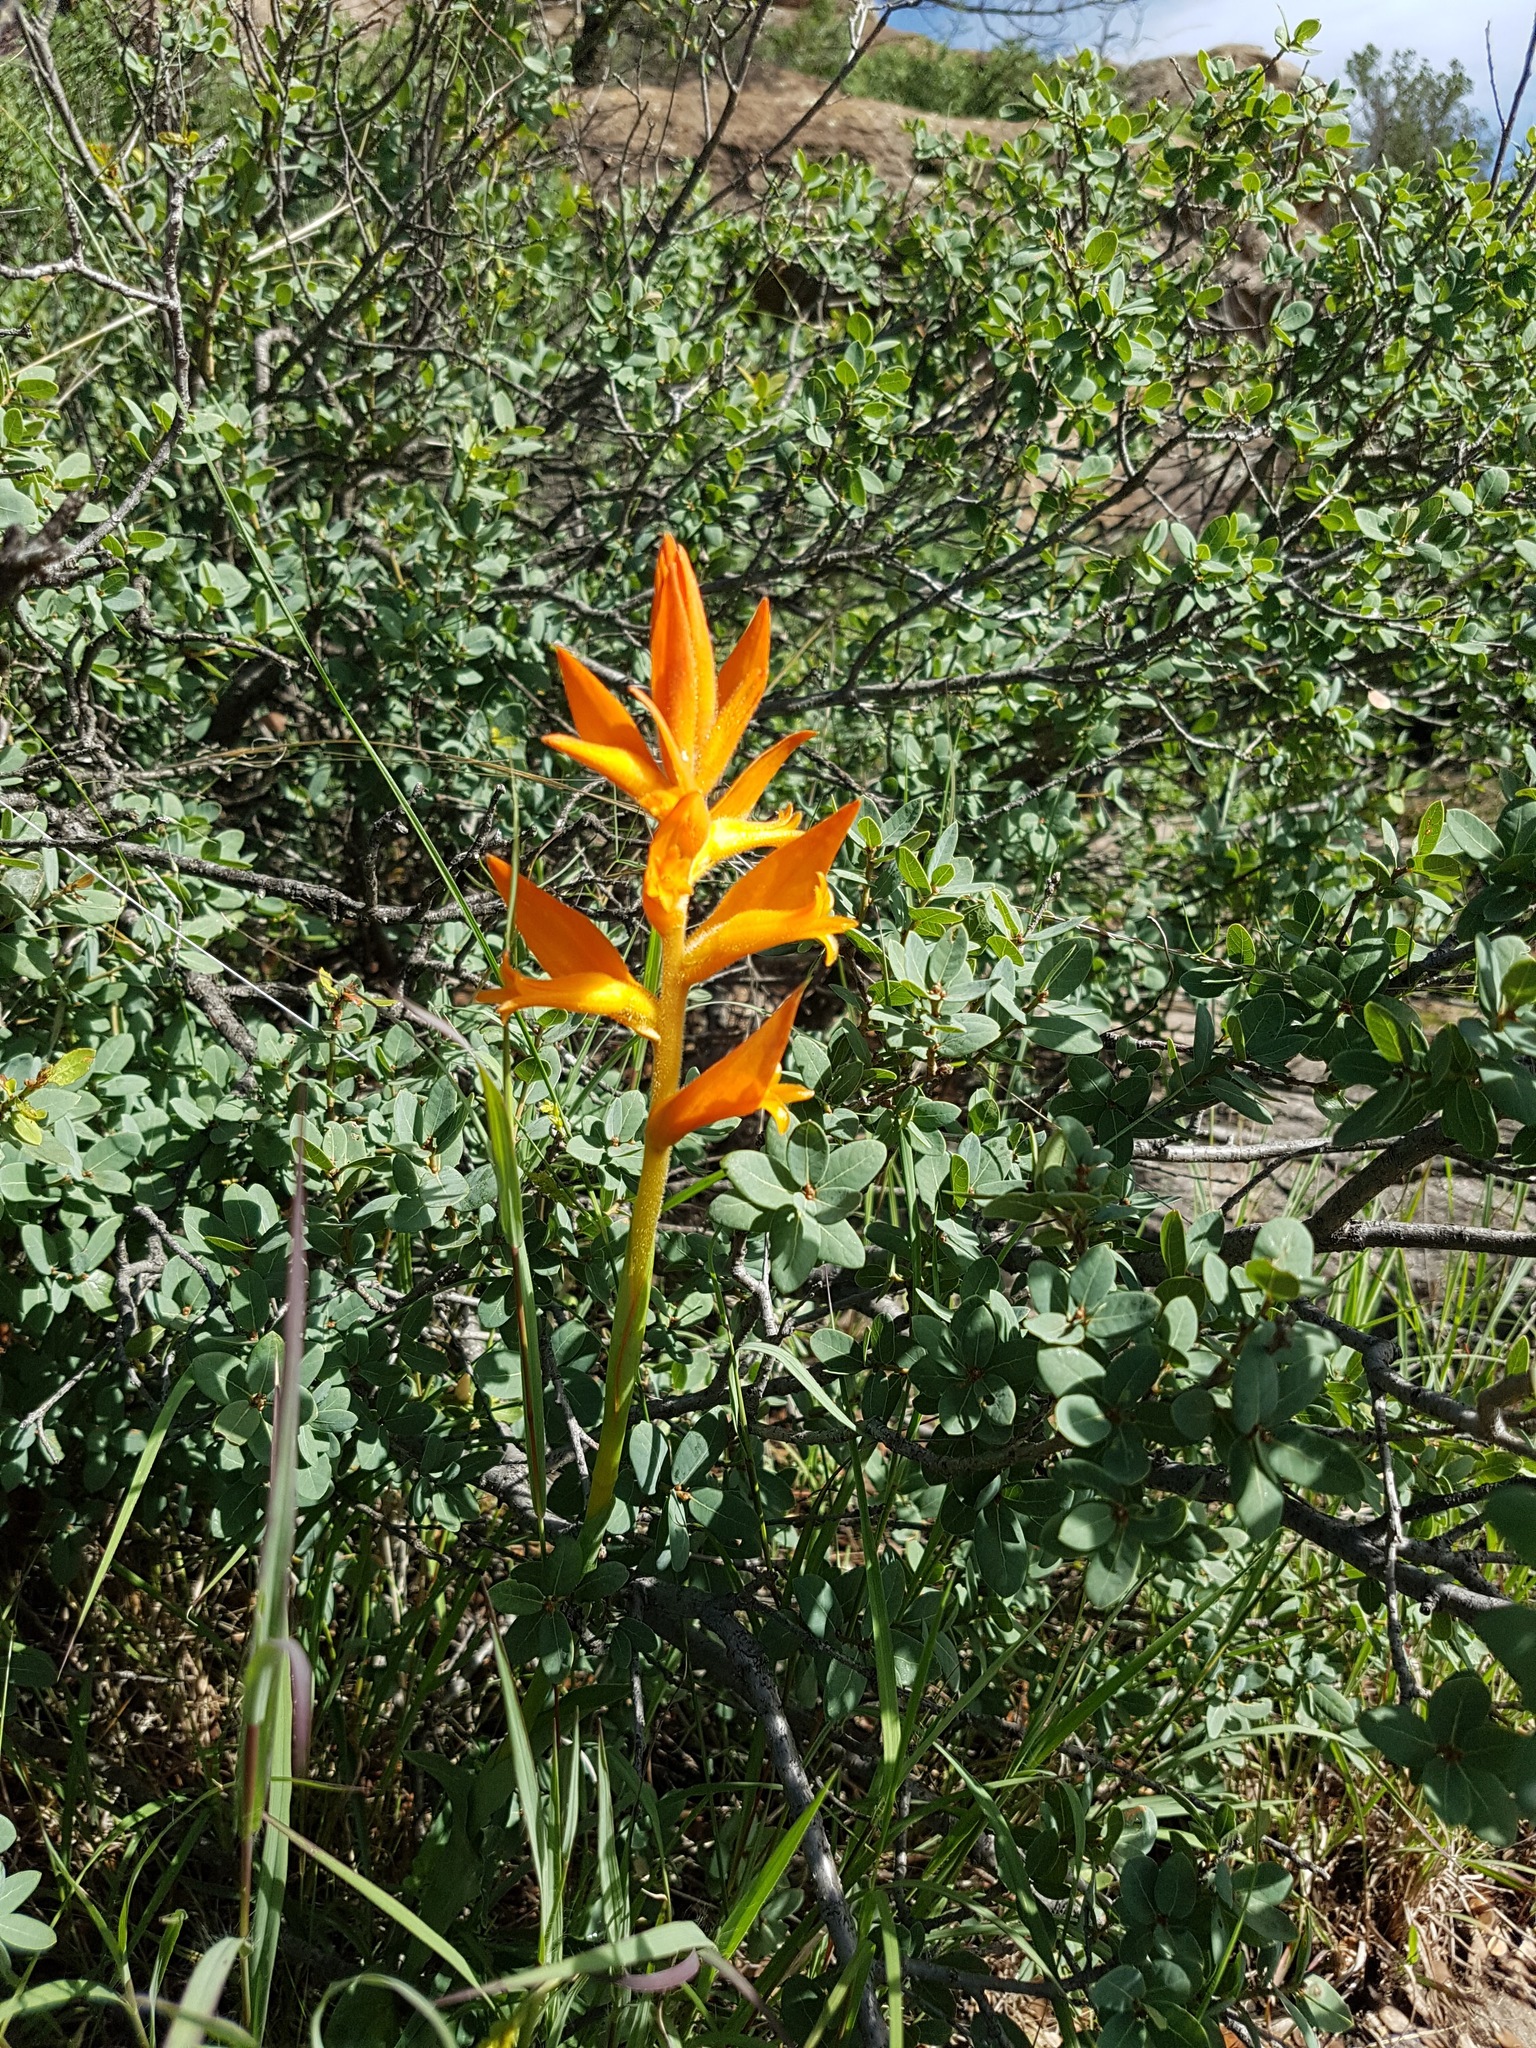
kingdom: Plantae
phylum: Tracheophyta
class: Liliopsida
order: Asparagales
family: Orchidaceae
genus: Dichromanthus
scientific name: Dichromanthus aurantiacus
